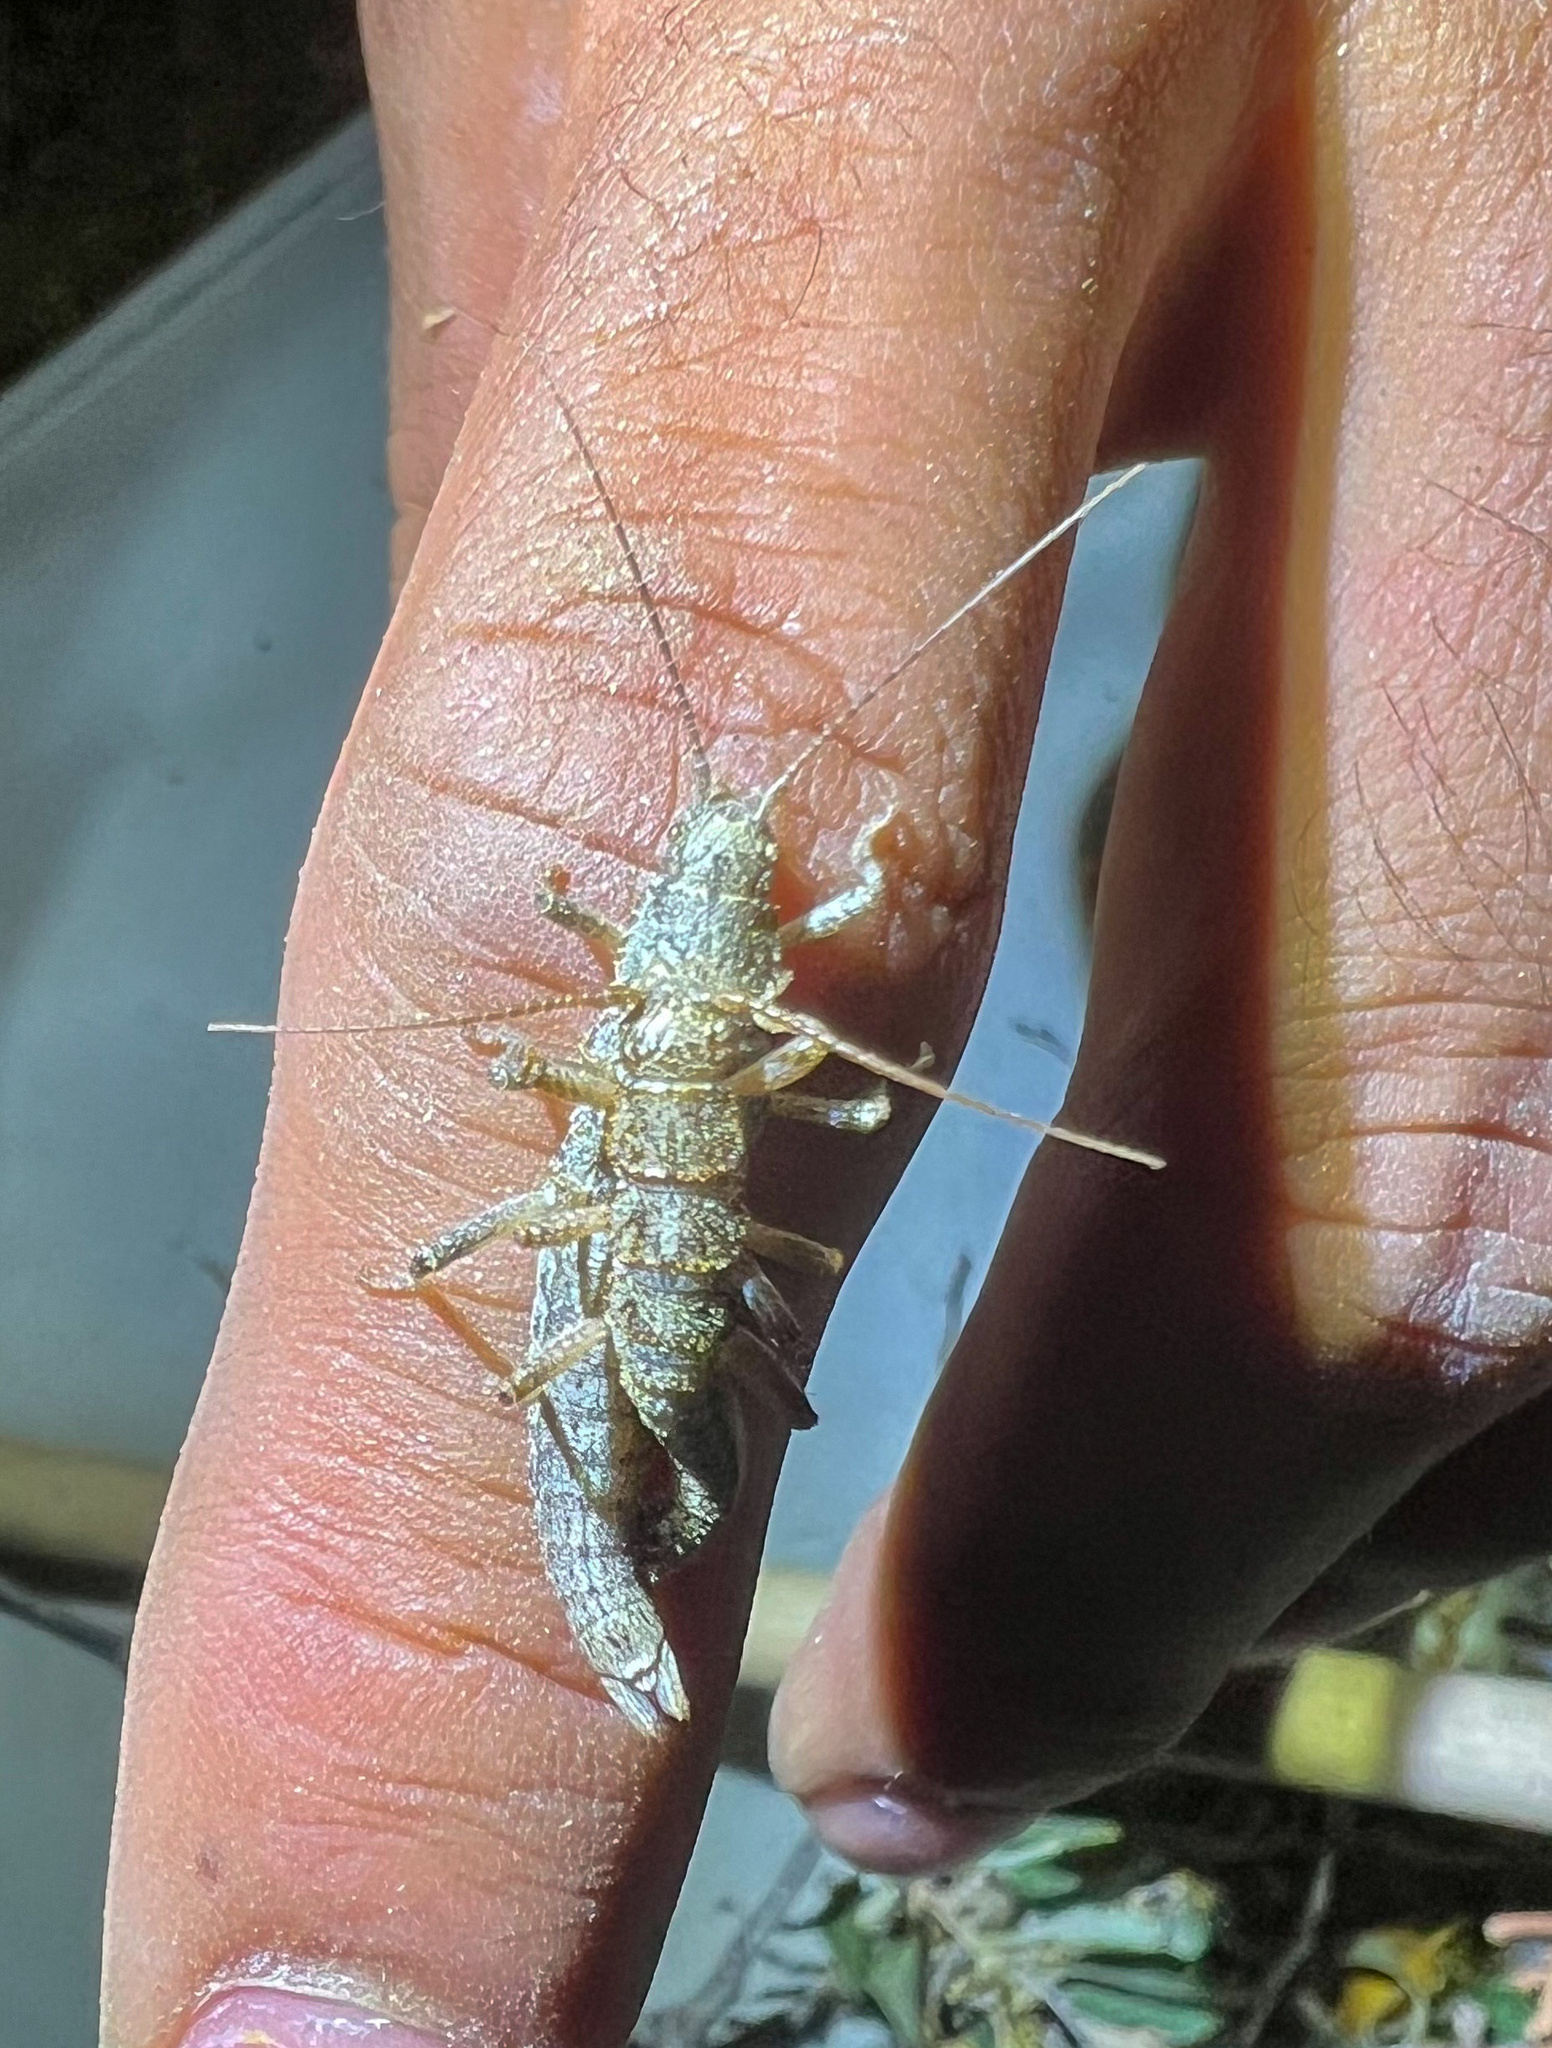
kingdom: Animalia
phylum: Arthropoda
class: Insecta
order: Phasmida
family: Timematidae
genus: Timema
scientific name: Timema boharti
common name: Bohart's timema
